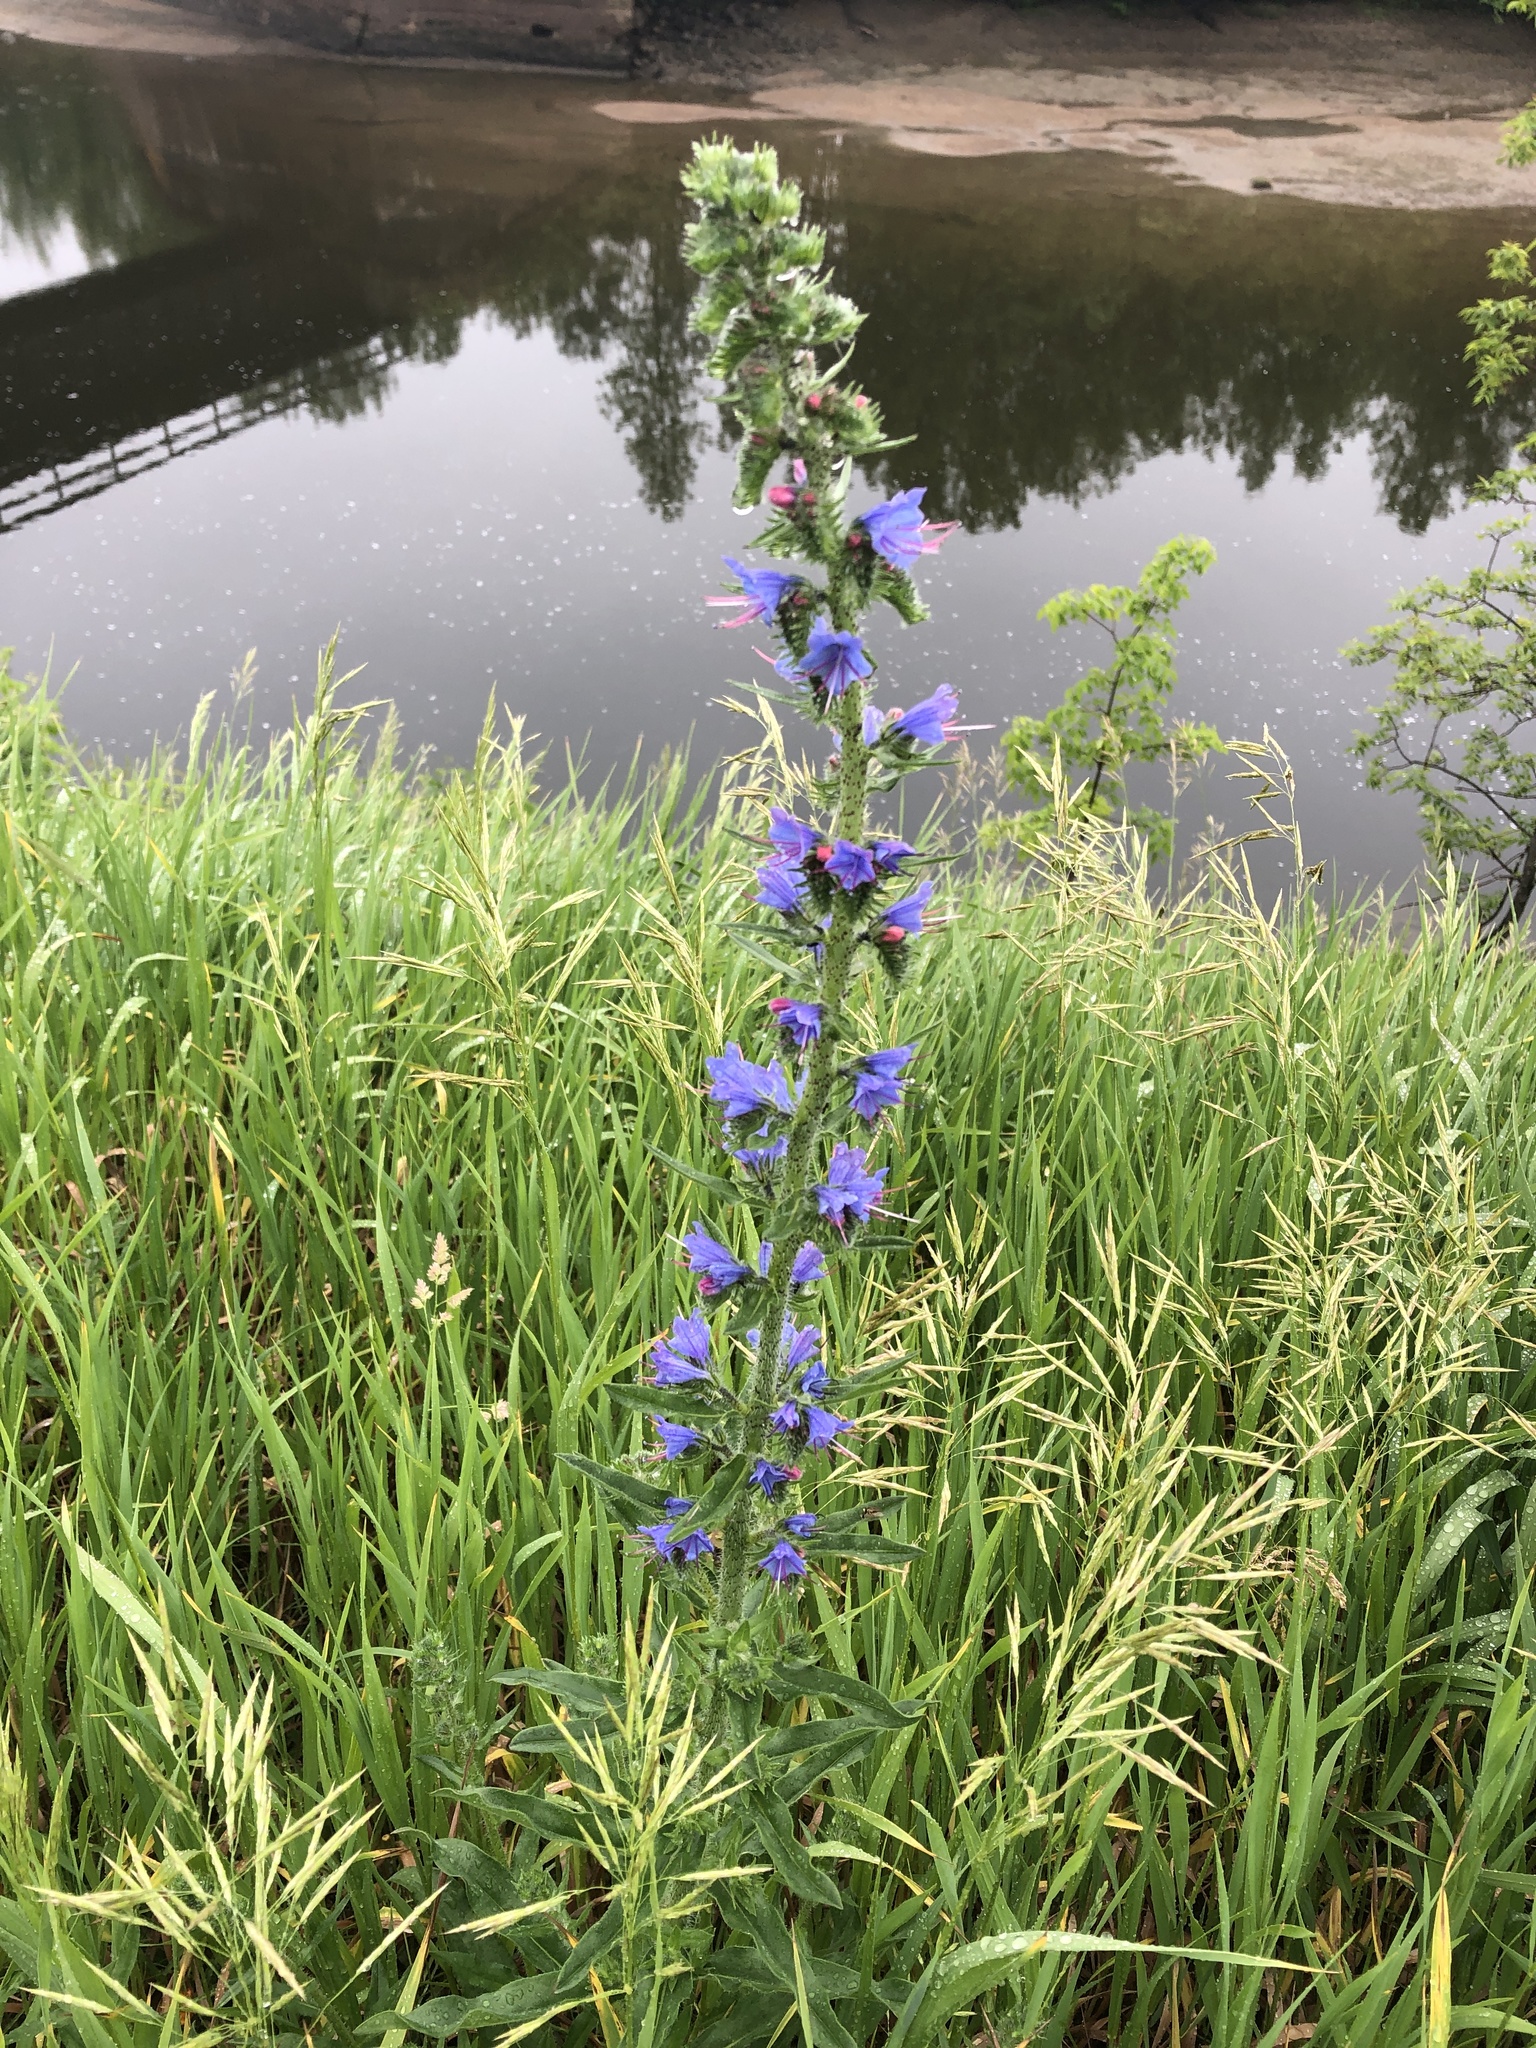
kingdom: Plantae
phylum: Tracheophyta
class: Magnoliopsida
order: Boraginales
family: Boraginaceae
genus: Echium
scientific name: Echium vulgare
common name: Common viper's bugloss
